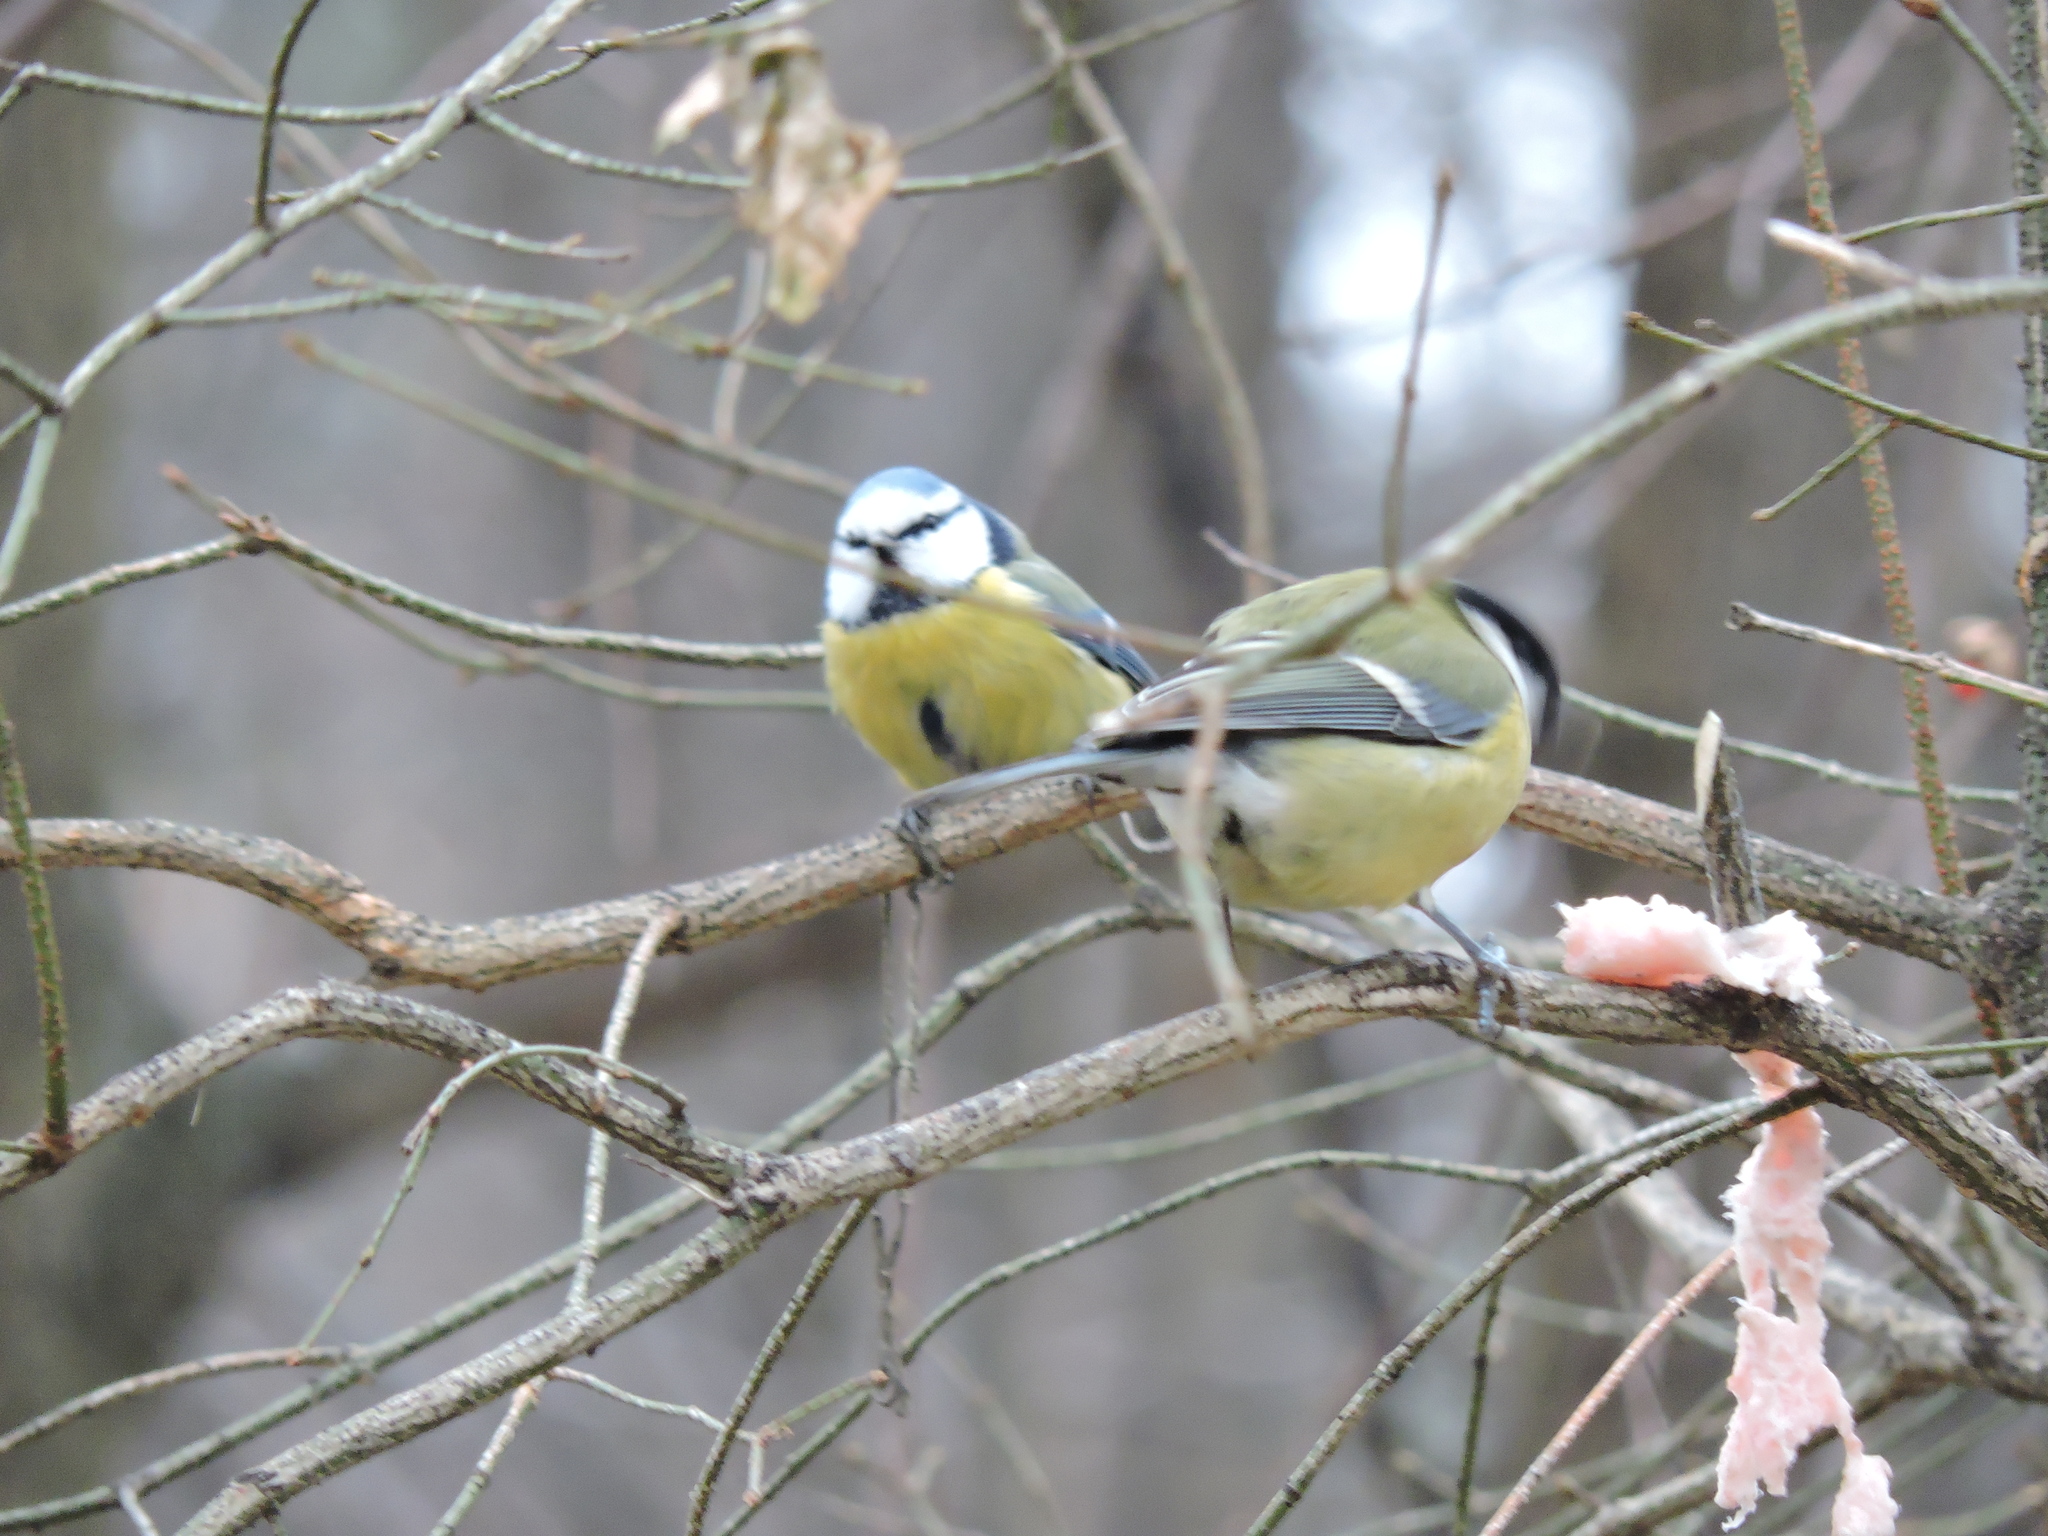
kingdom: Animalia
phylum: Chordata
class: Aves
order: Passeriformes
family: Paridae
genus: Cyanistes
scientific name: Cyanistes caeruleus
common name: Eurasian blue tit
